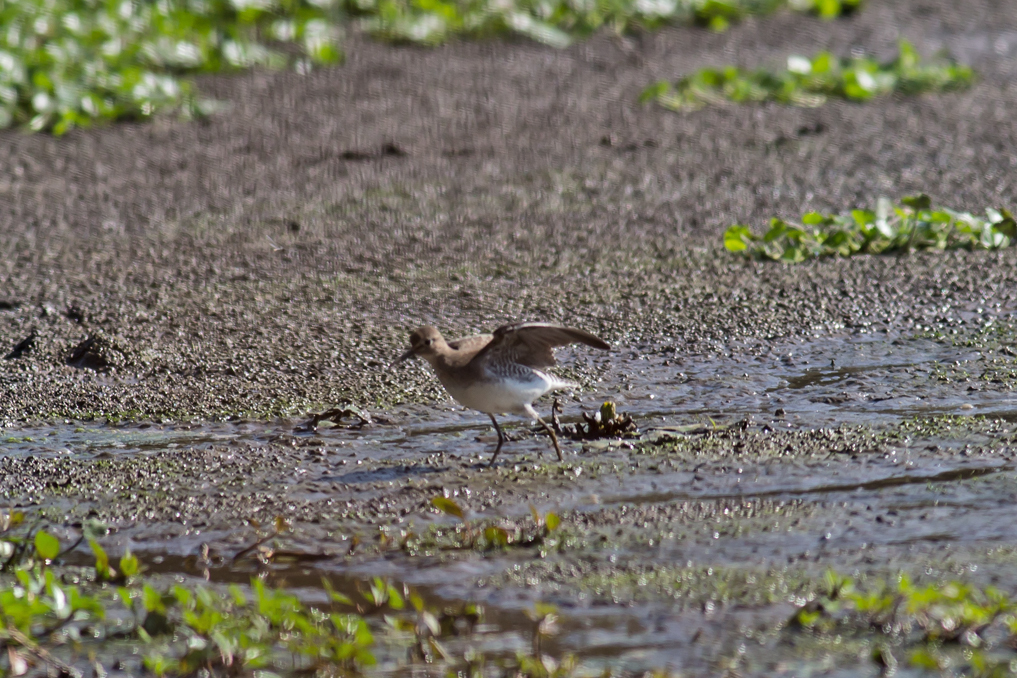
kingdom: Animalia
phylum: Chordata
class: Aves
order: Charadriiformes
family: Scolopacidae
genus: Tringa
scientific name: Tringa solitaria
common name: Solitary sandpiper
